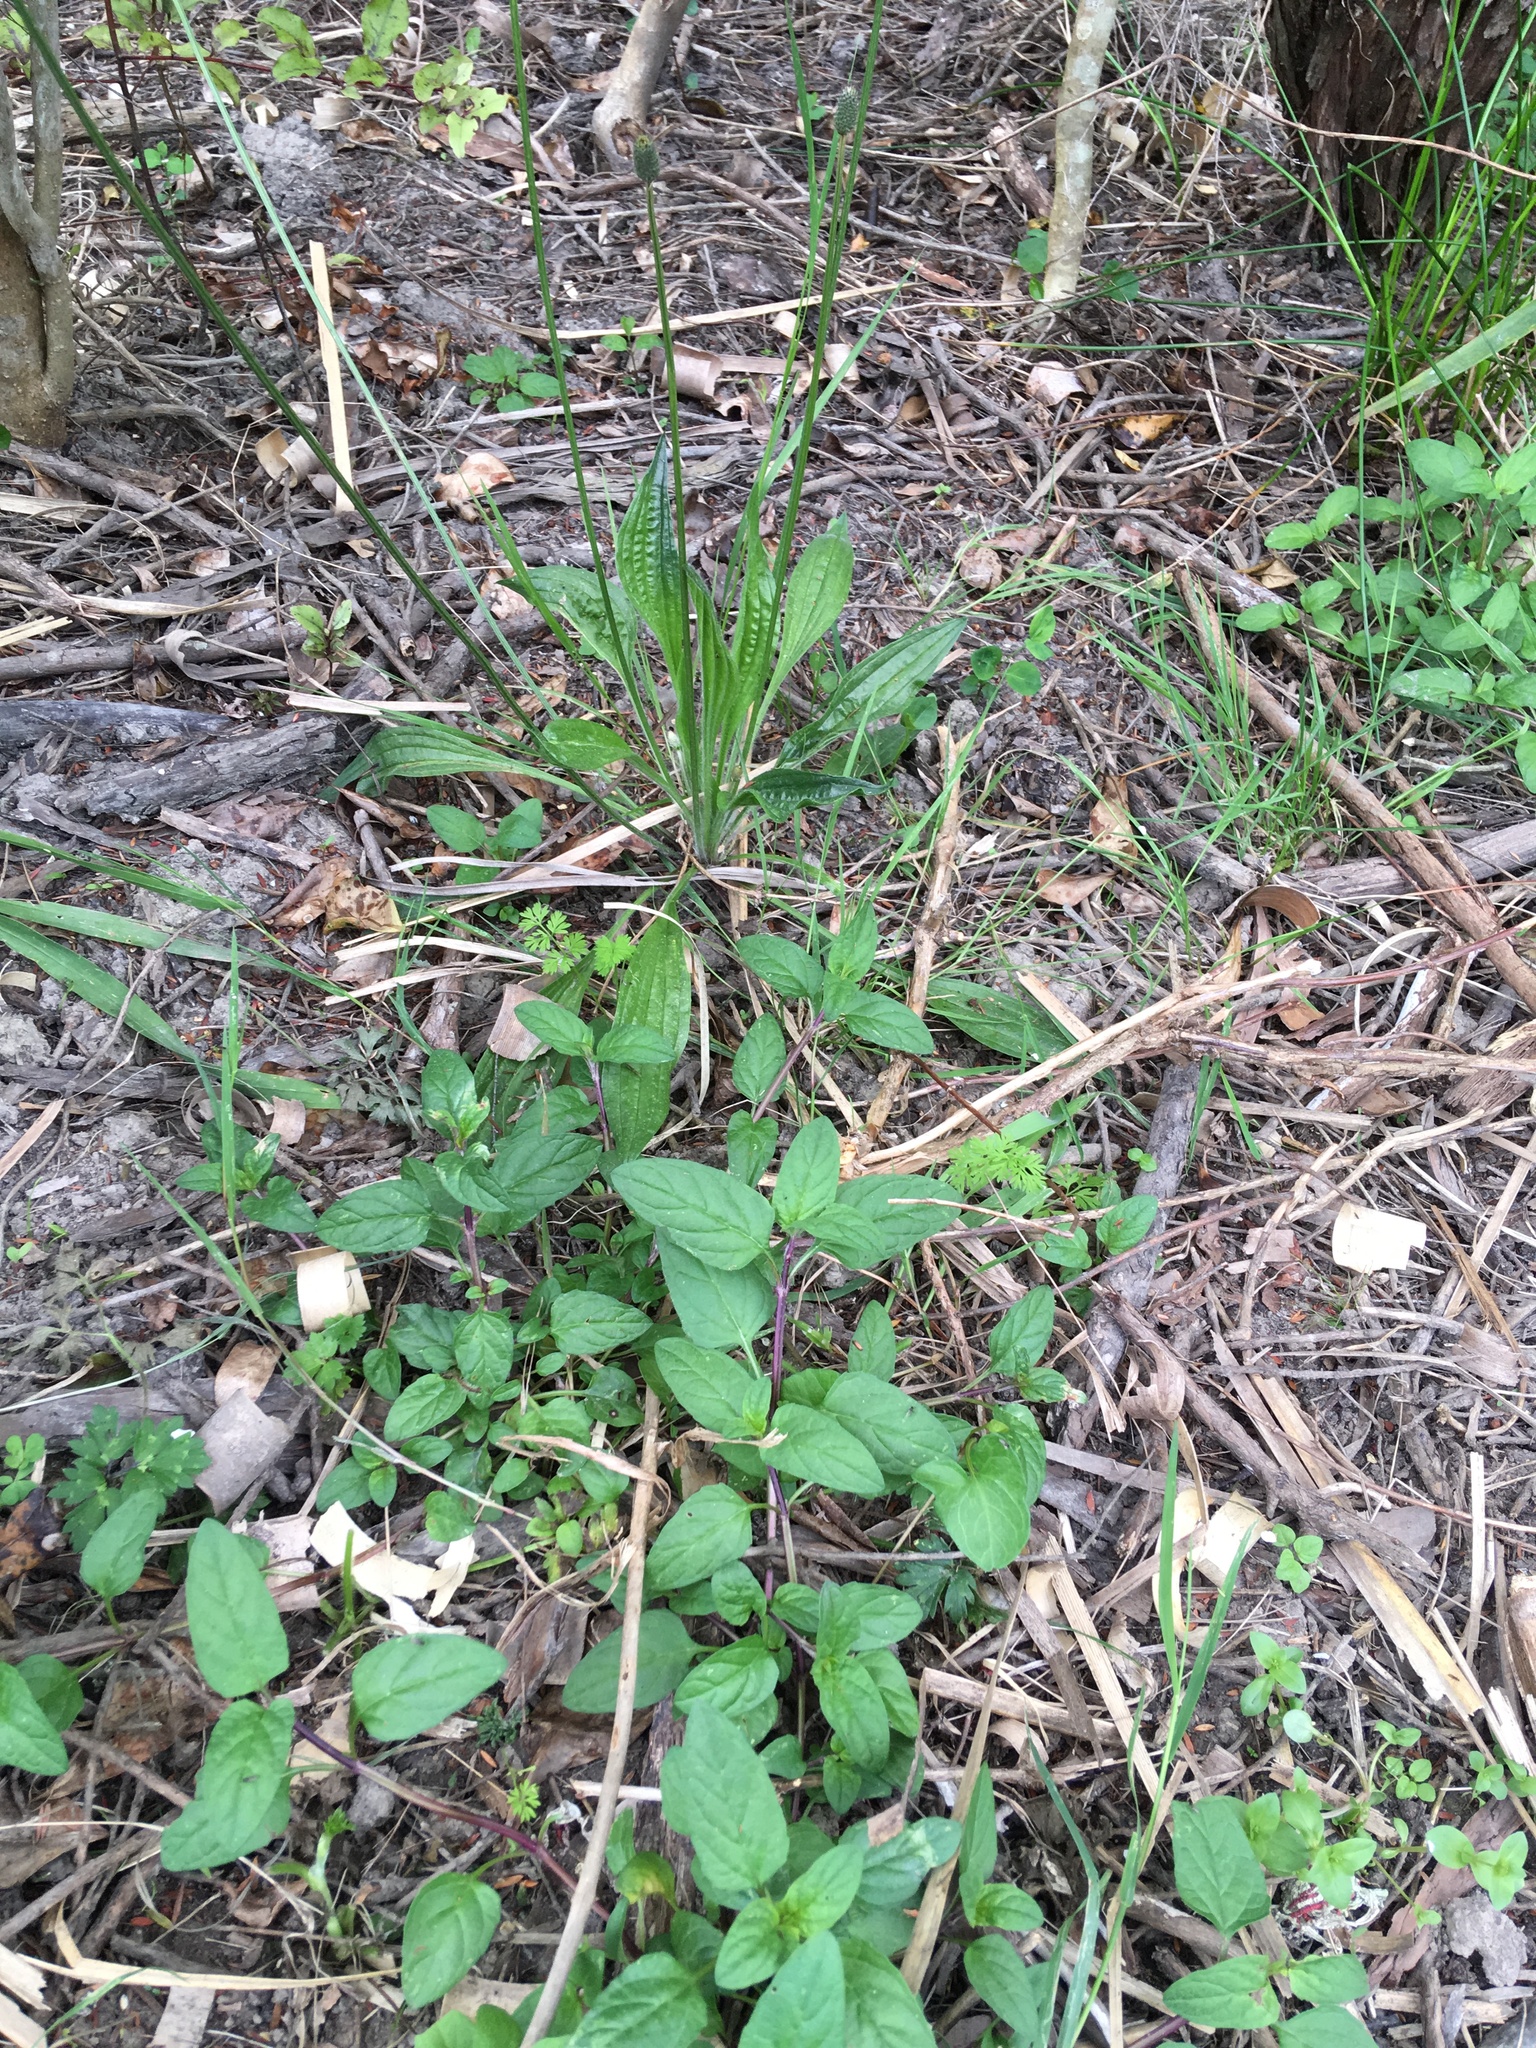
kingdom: Plantae
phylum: Tracheophyta
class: Magnoliopsida
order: Lamiales
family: Lamiaceae
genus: Prunella
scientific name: Prunella vulgaris
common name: Heal-all
